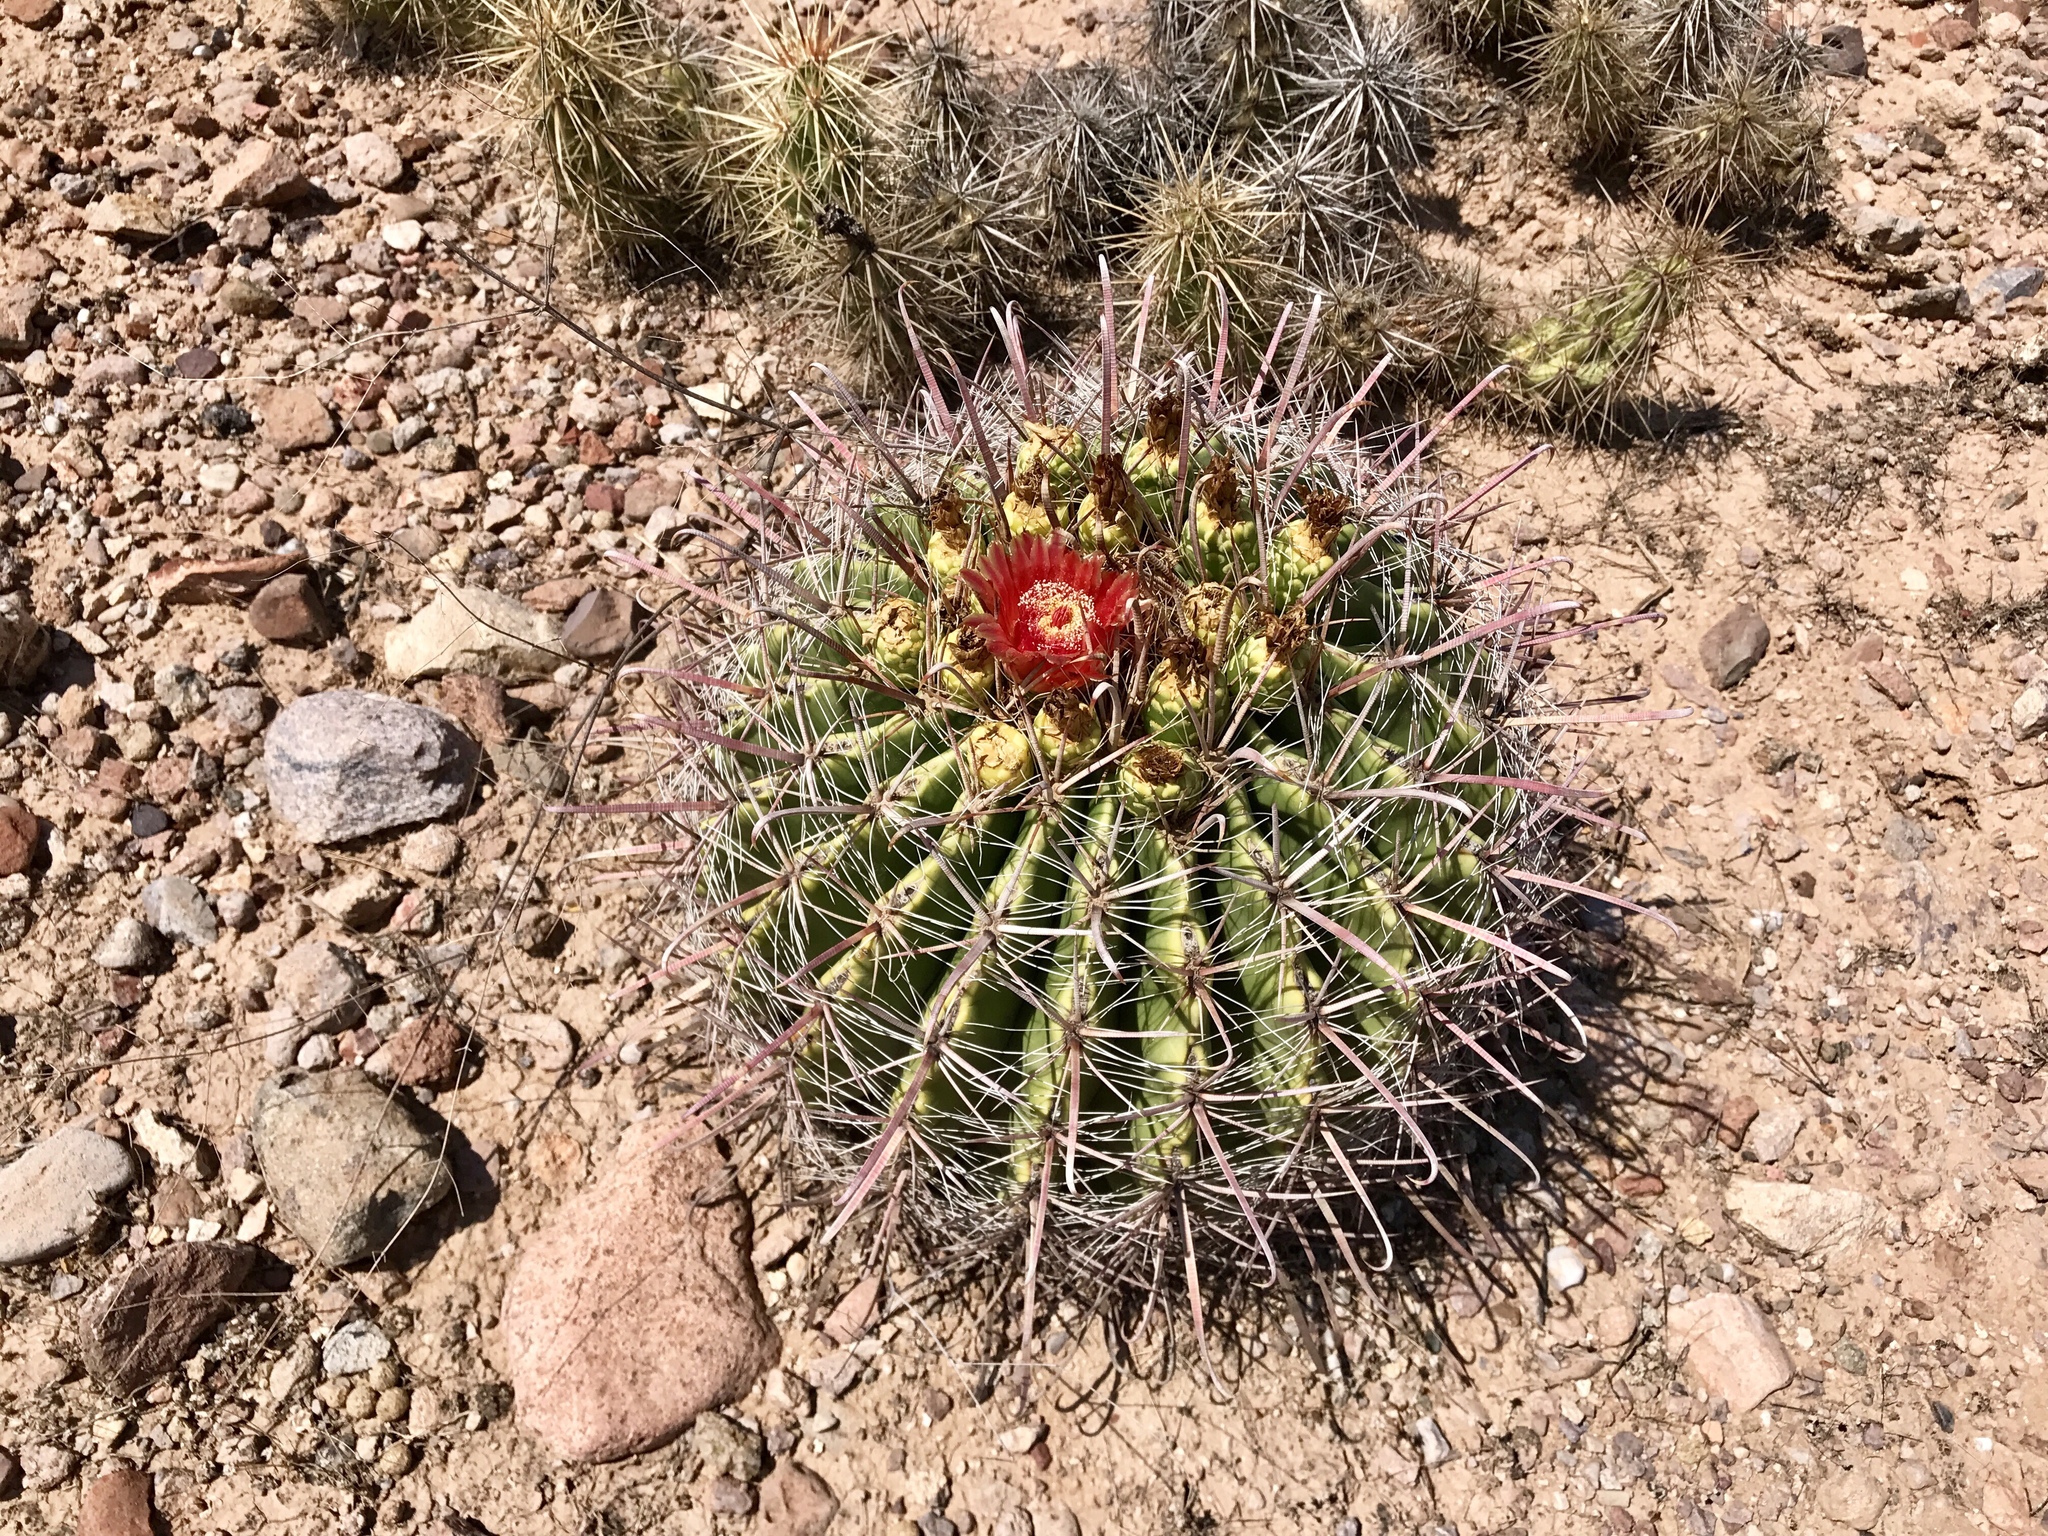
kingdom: Plantae
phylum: Tracheophyta
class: Magnoliopsida
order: Caryophyllales
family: Cactaceae
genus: Ferocactus
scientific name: Ferocactus wislizeni
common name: Candy barrel cactus
